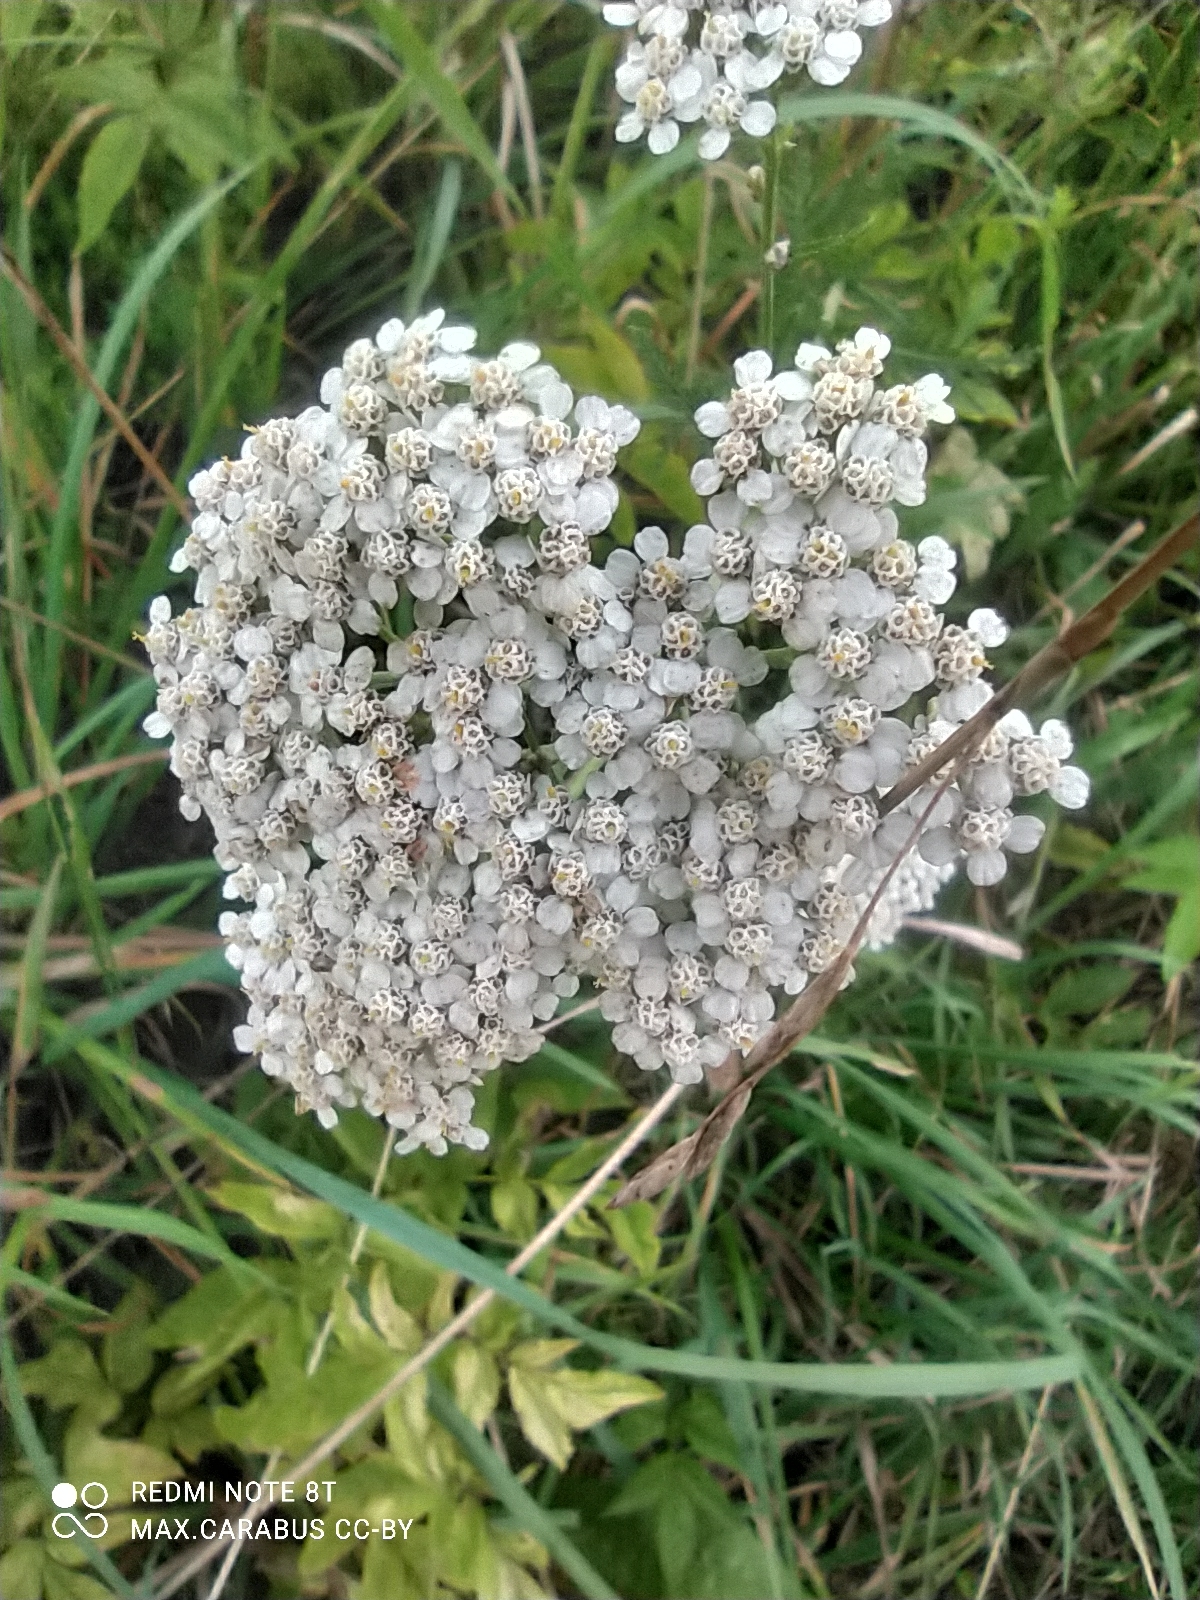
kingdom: Plantae
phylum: Tracheophyta
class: Magnoliopsida
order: Asterales
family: Asteraceae
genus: Achillea
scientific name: Achillea millefolium
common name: Yarrow
